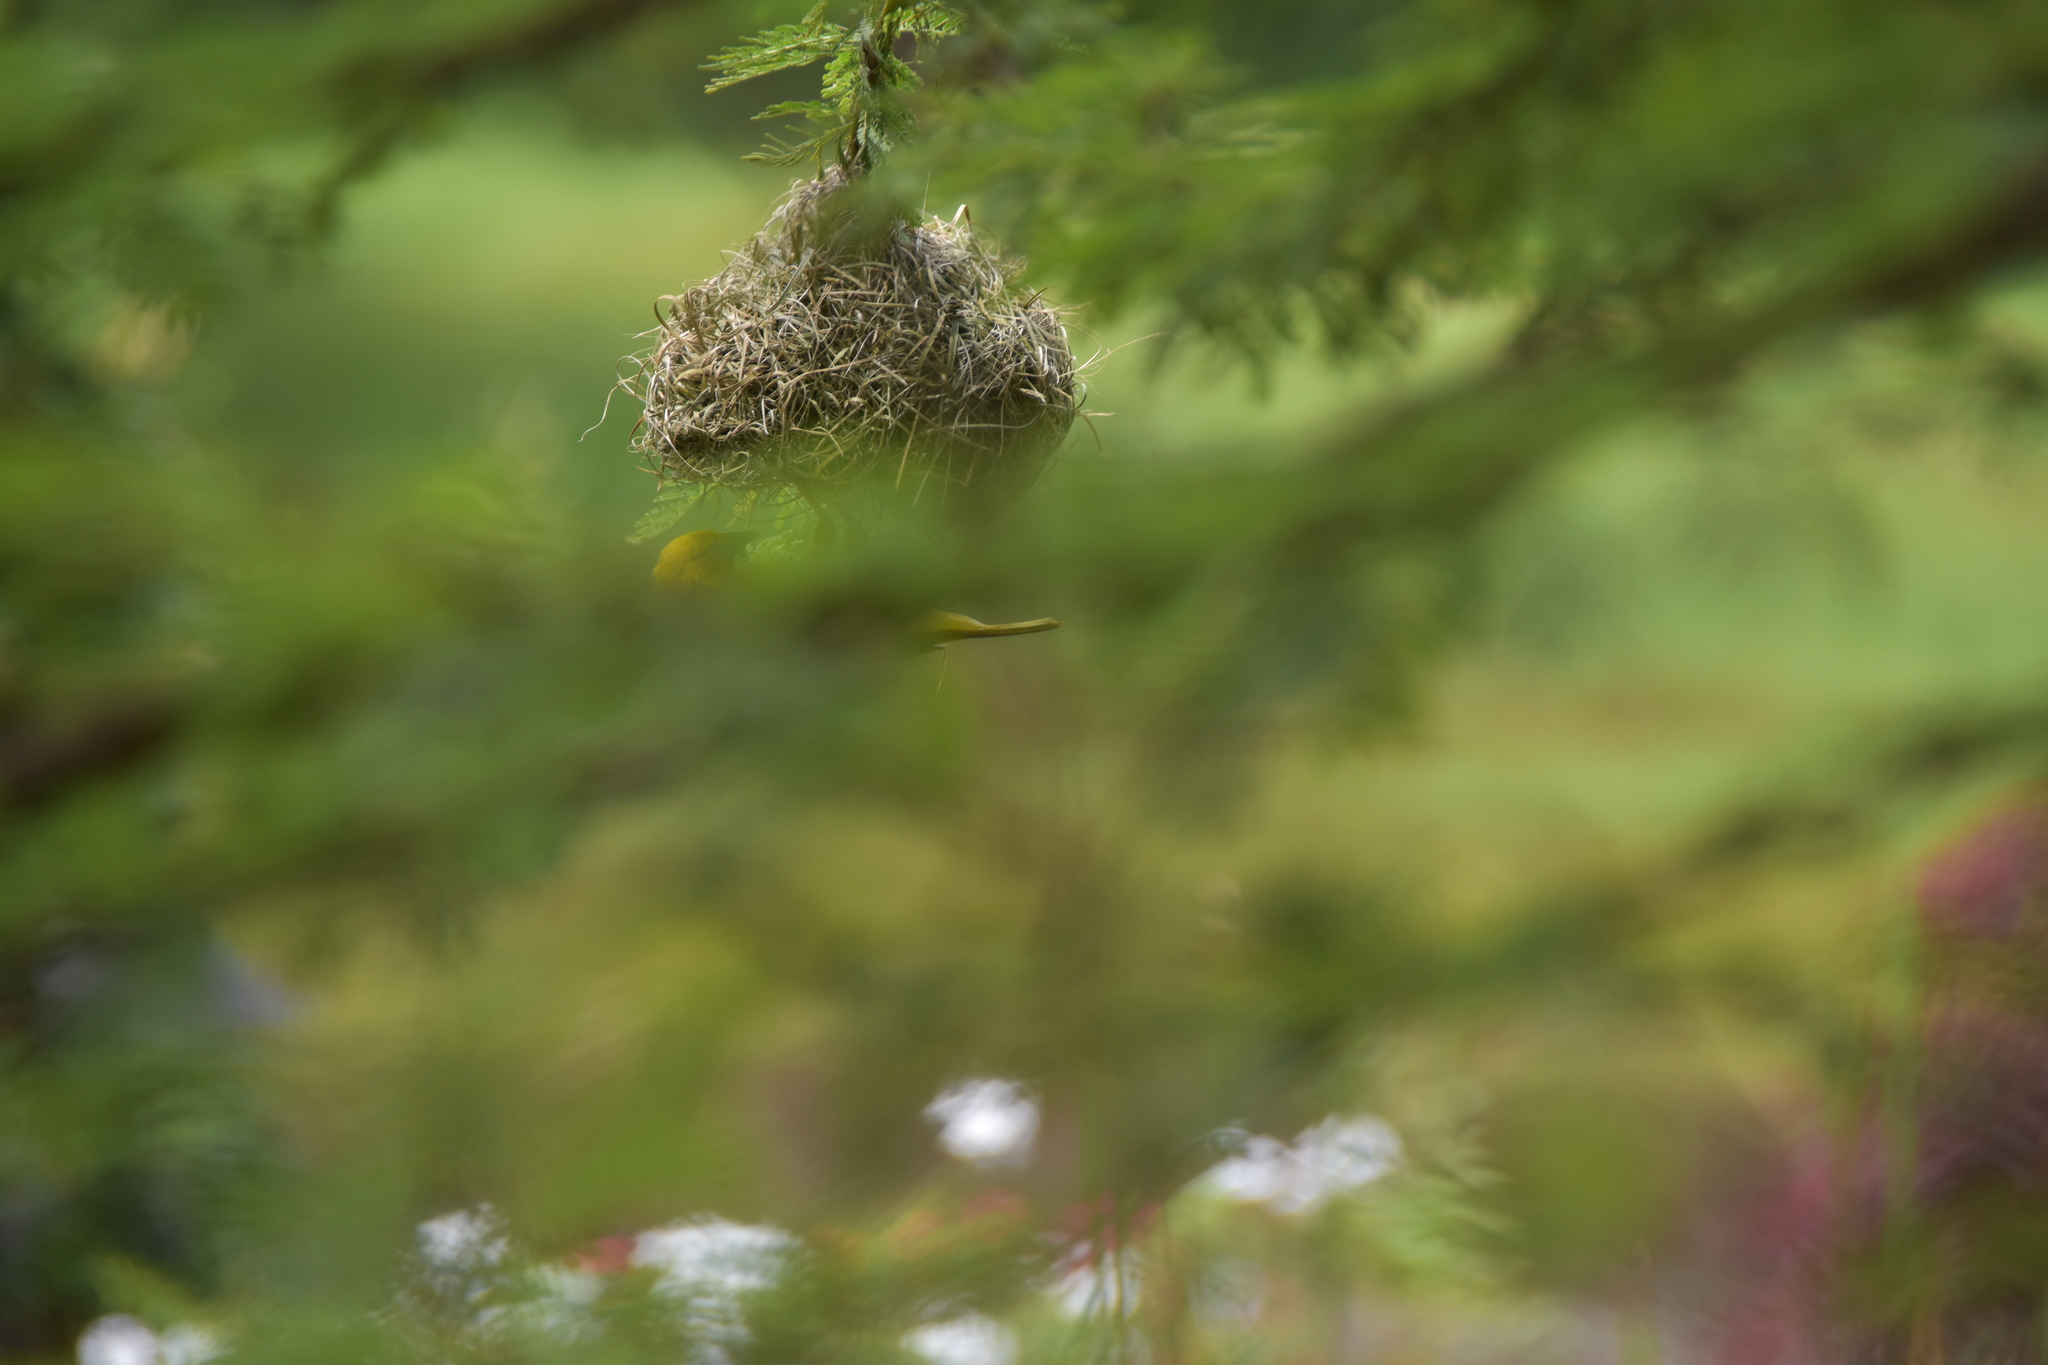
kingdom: Animalia
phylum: Chordata
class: Aves
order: Passeriformes
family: Ploceidae
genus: Ploceus
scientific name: Ploceus xanthops
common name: Holub's golden weaver
